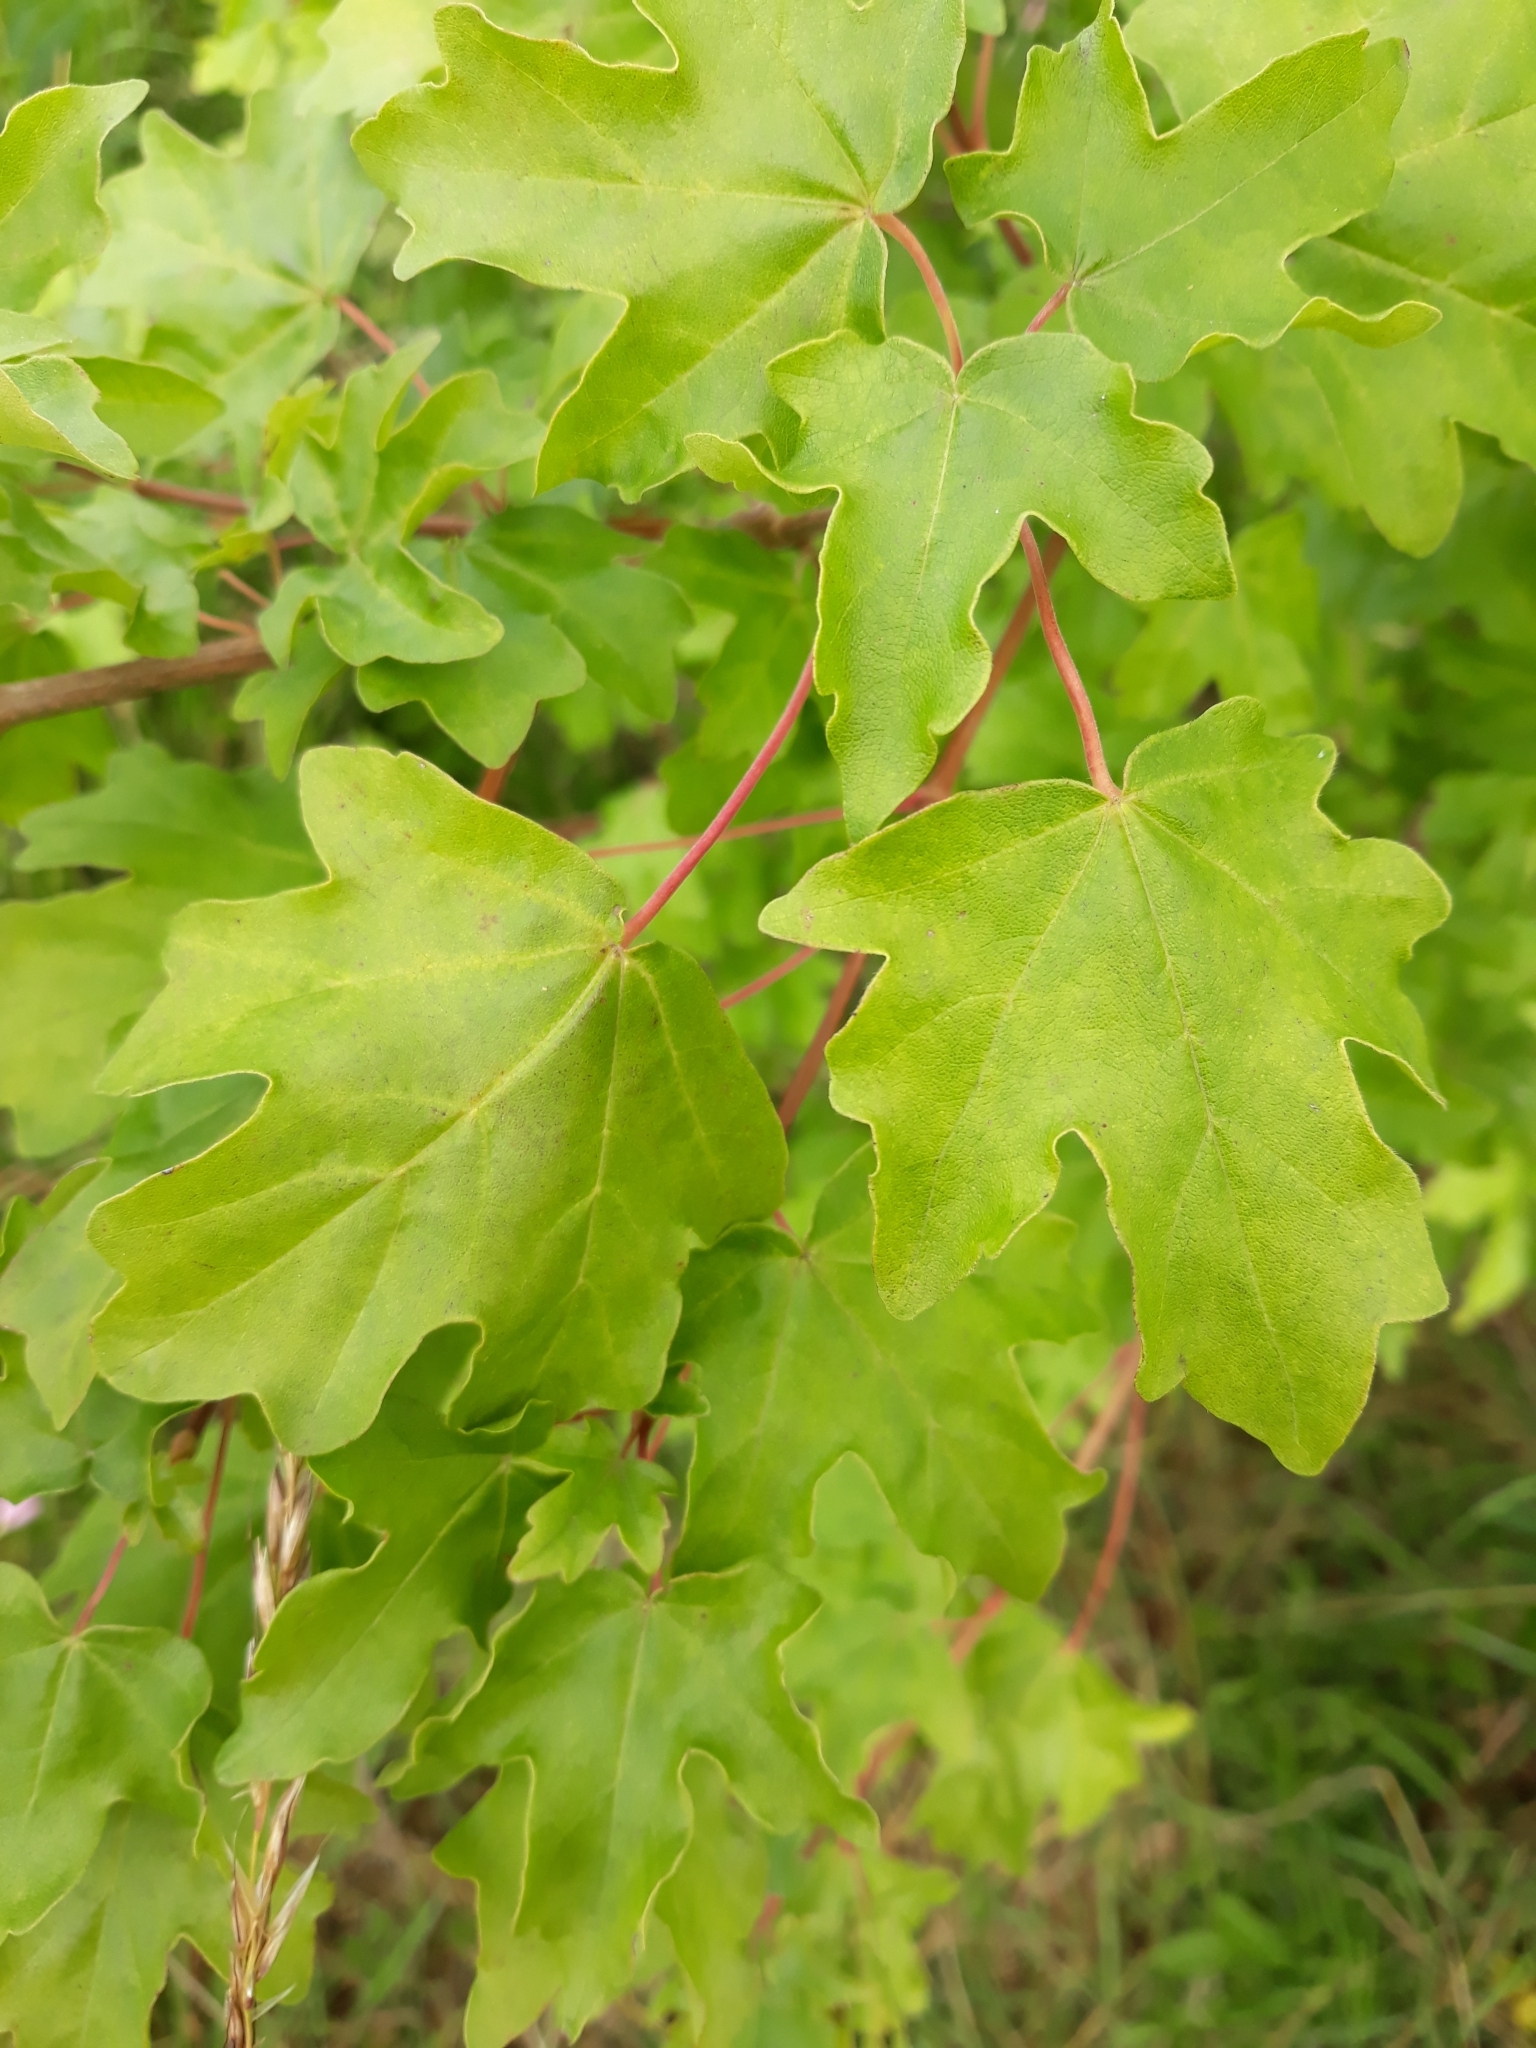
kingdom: Plantae
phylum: Tracheophyta
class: Magnoliopsida
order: Sapindales
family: Sapindaceae
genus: Acer
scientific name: Acer campestre
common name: Field maple
